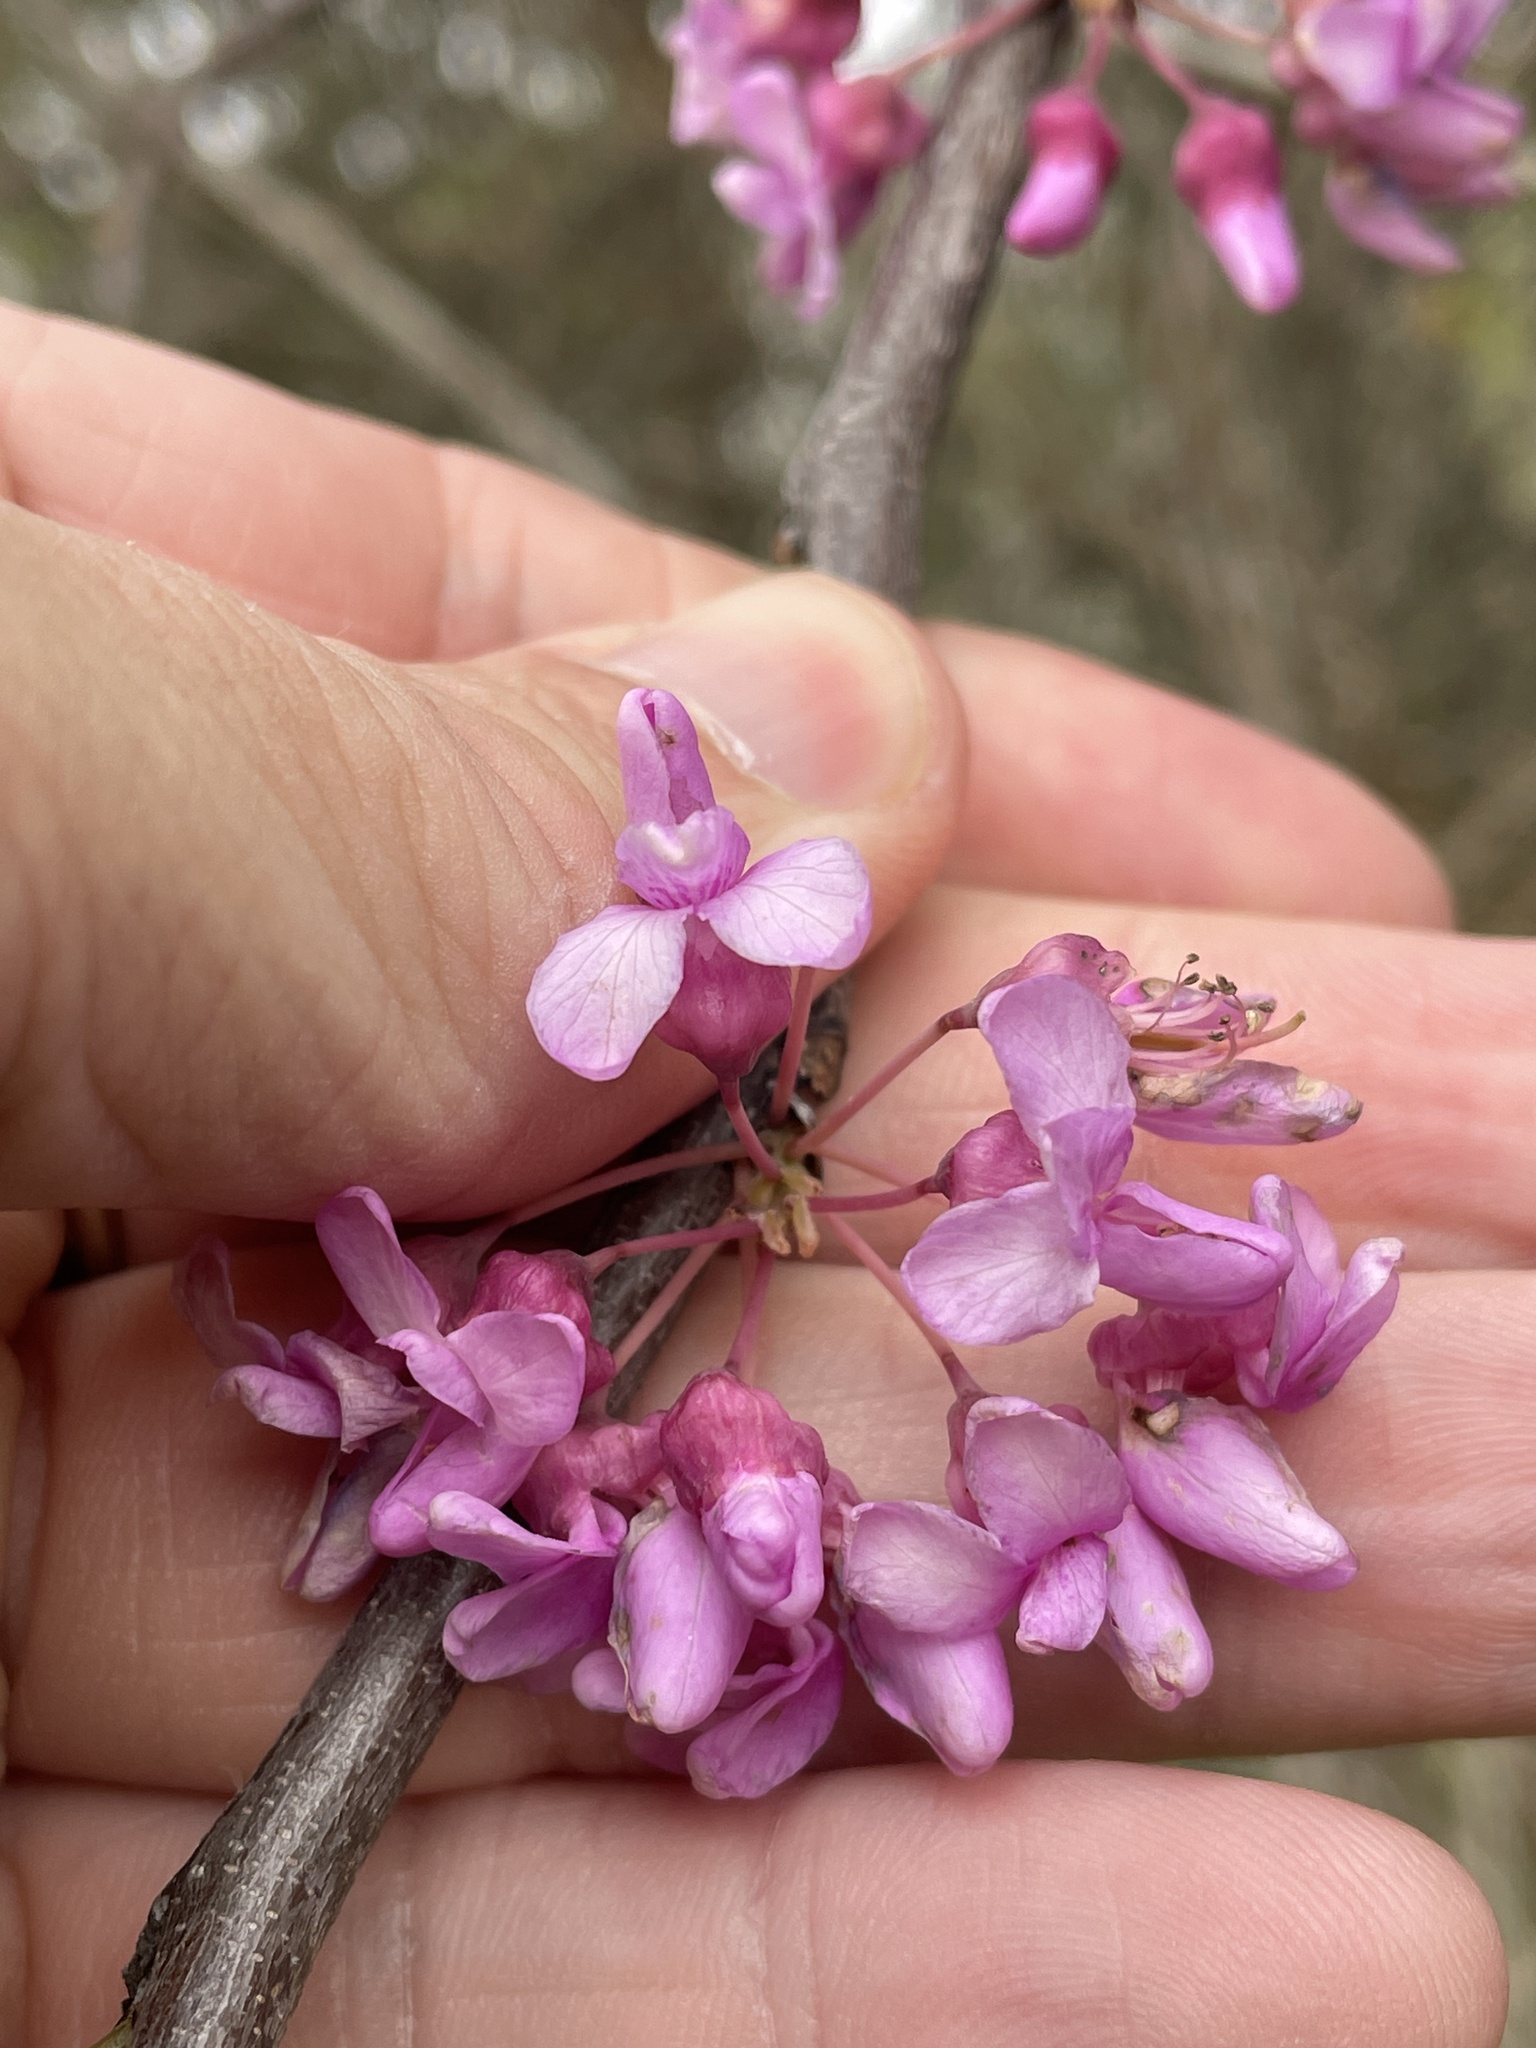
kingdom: Plantae
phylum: Tracheophyta
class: Magnoliopsida
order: Fabales
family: Fabaceae
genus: Cercis
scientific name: Cercis canadensis
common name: Eastern redbud
